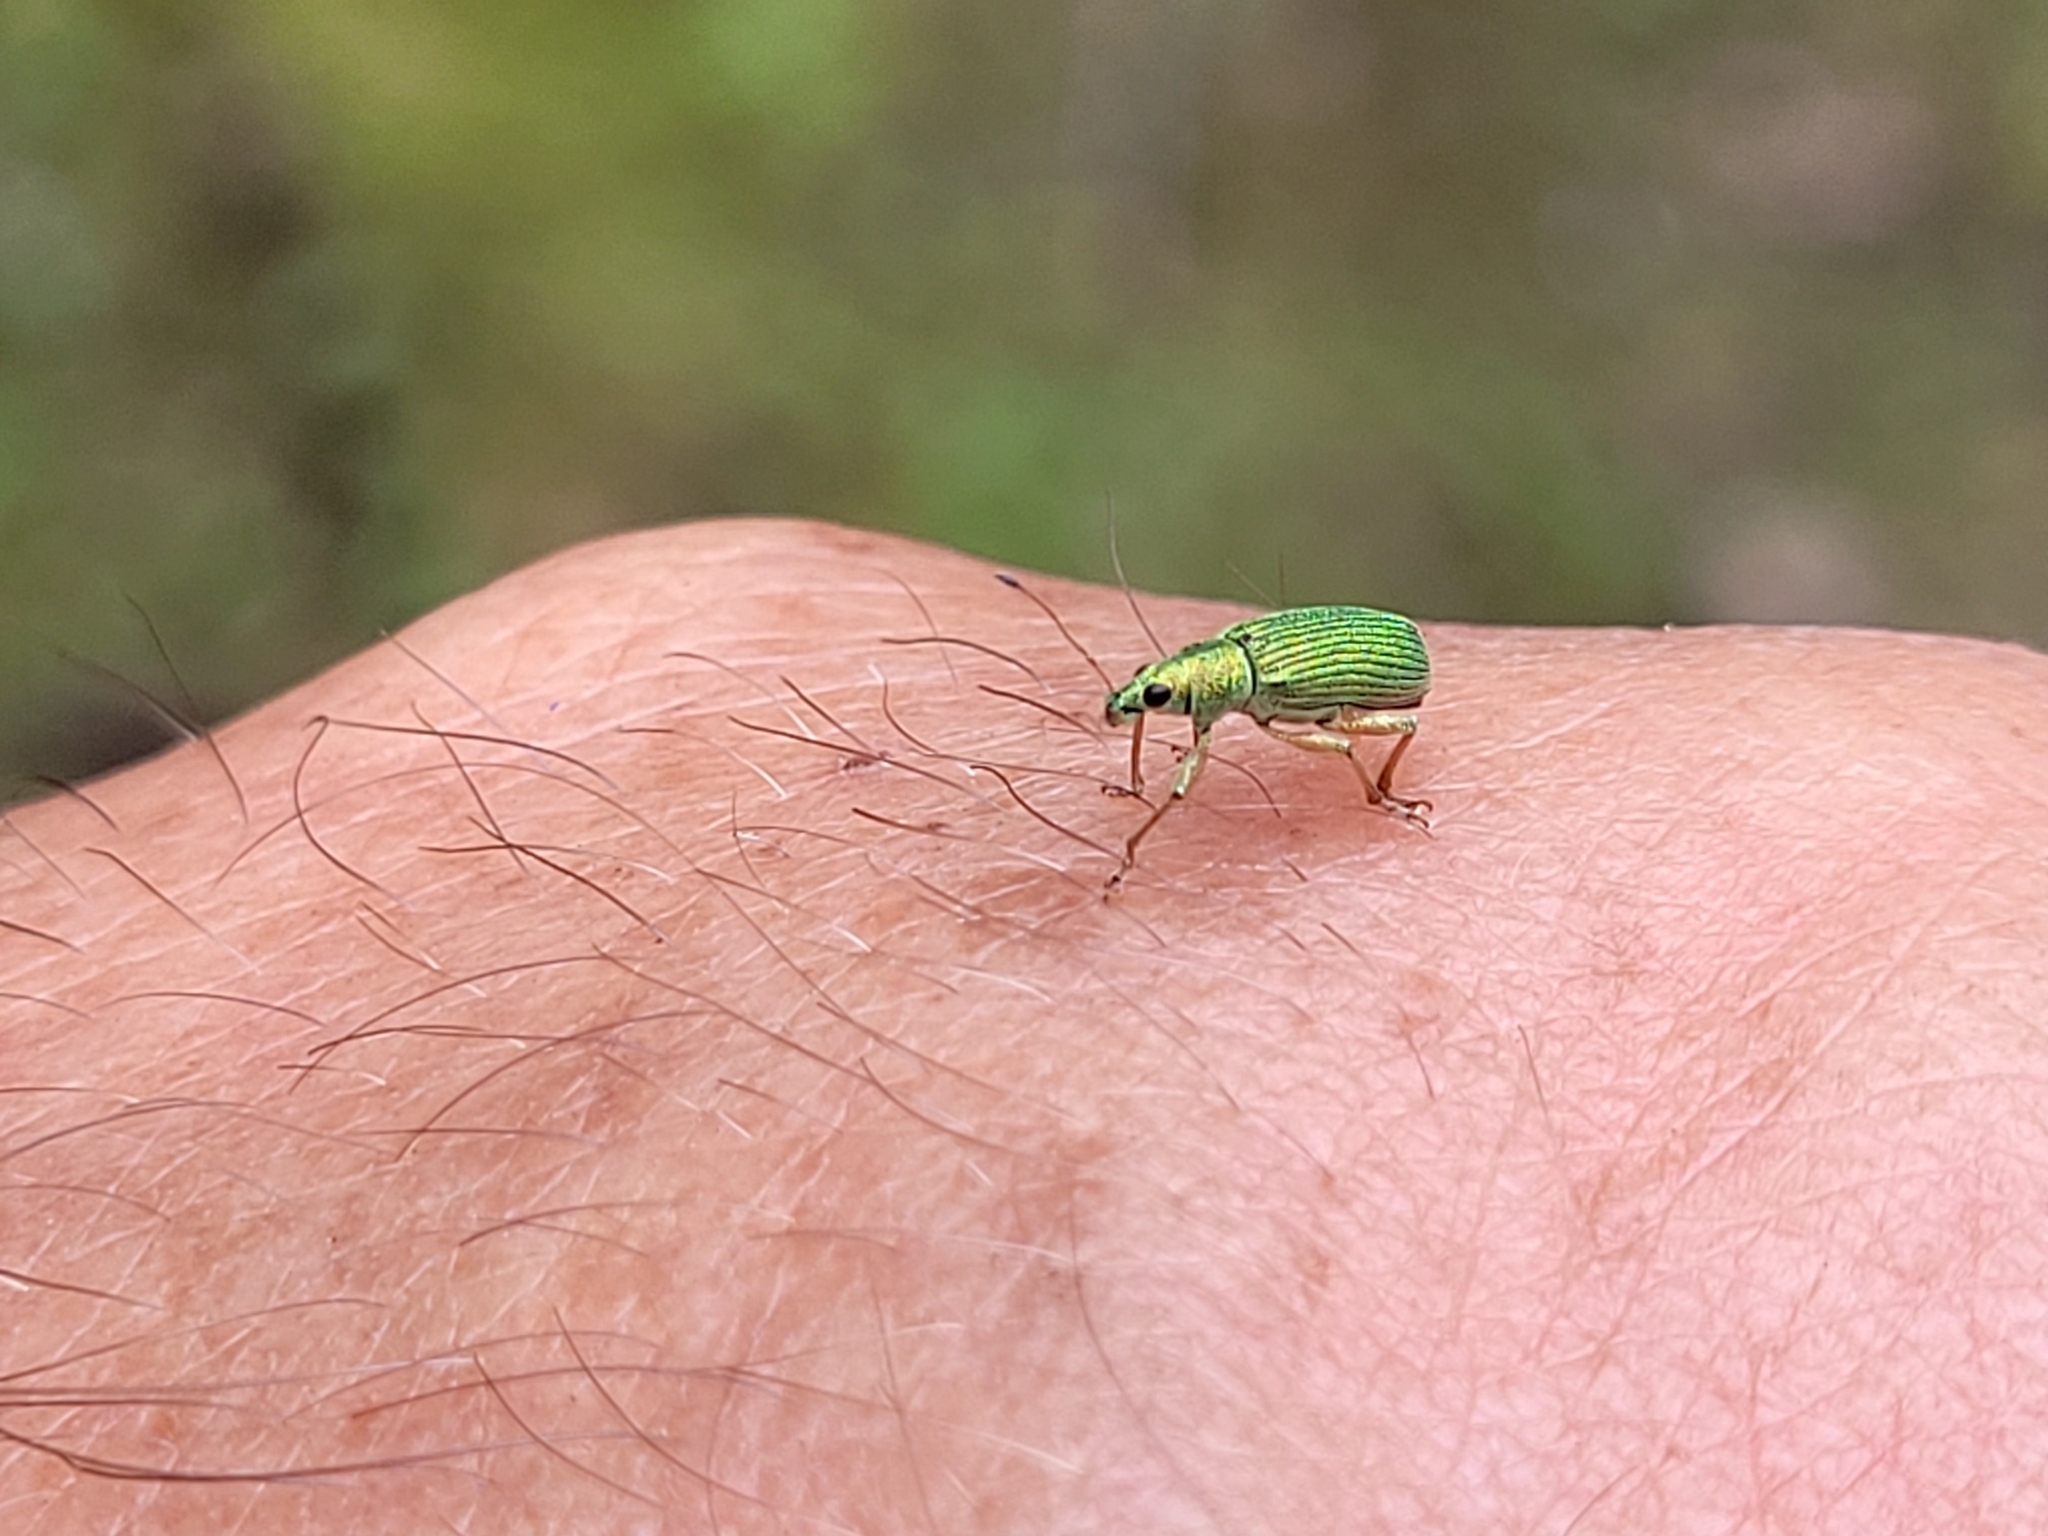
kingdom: Animalia
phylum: Arthropoda
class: Insecta
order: Coleoptera
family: Curculionidae
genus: Polydrusus
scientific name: Polydrusus formosus
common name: Weevil
